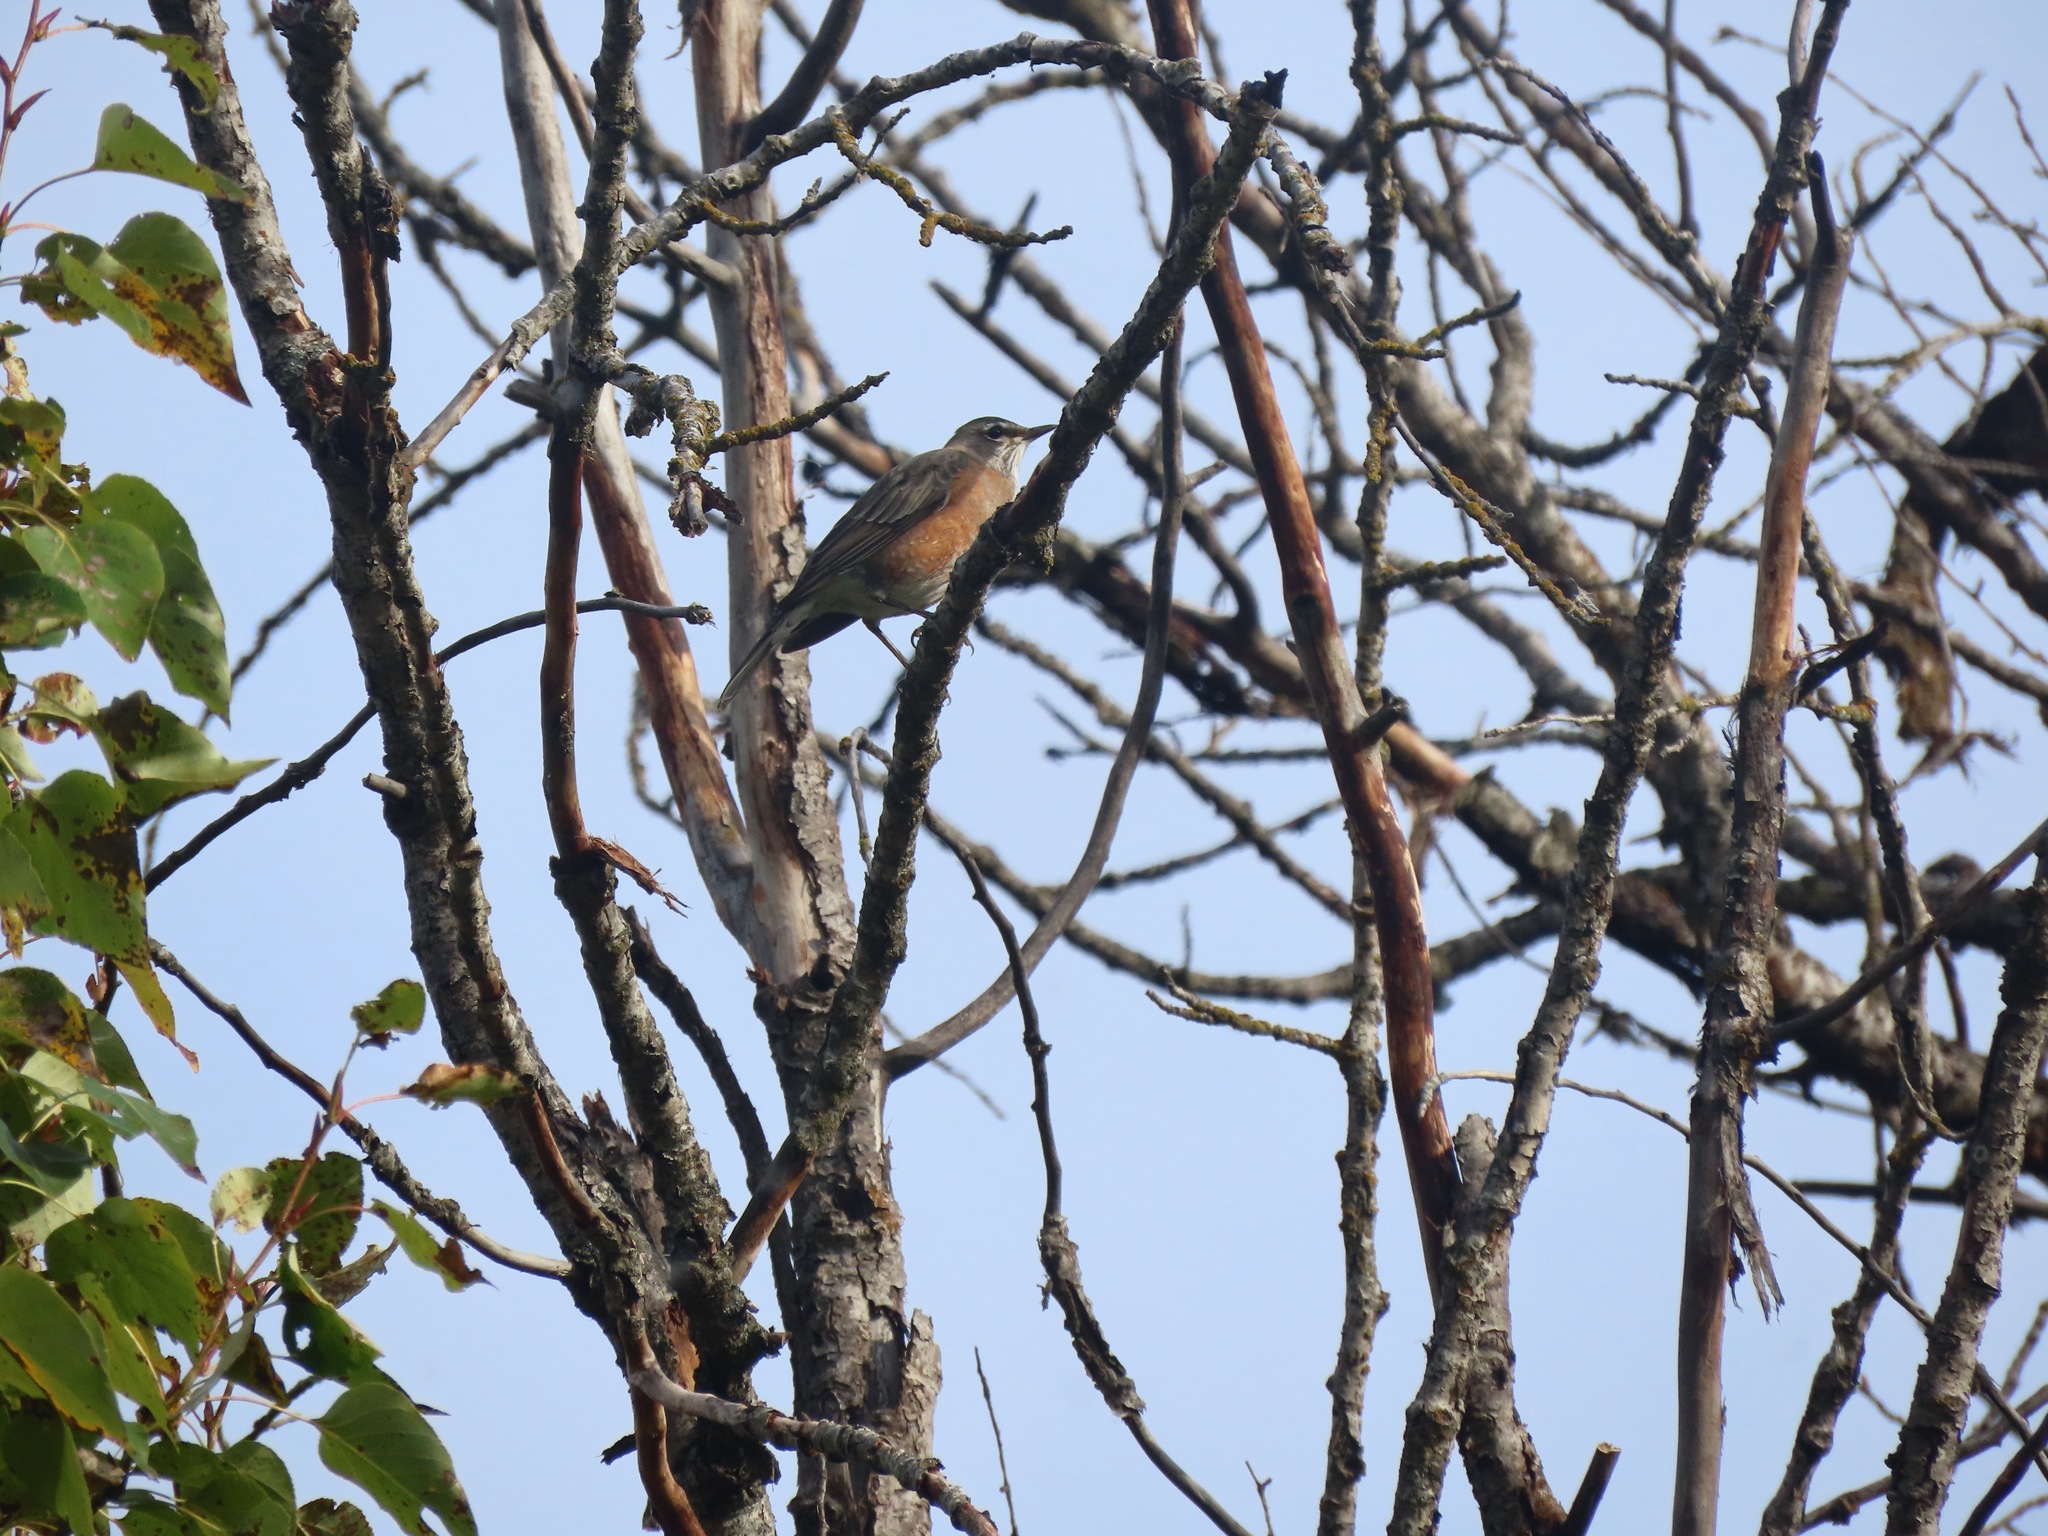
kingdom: Animalia
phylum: Chordata
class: Aves
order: Passeriformes
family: Turdidae
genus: Turdus
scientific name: Turdus migratorius
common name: American robin
